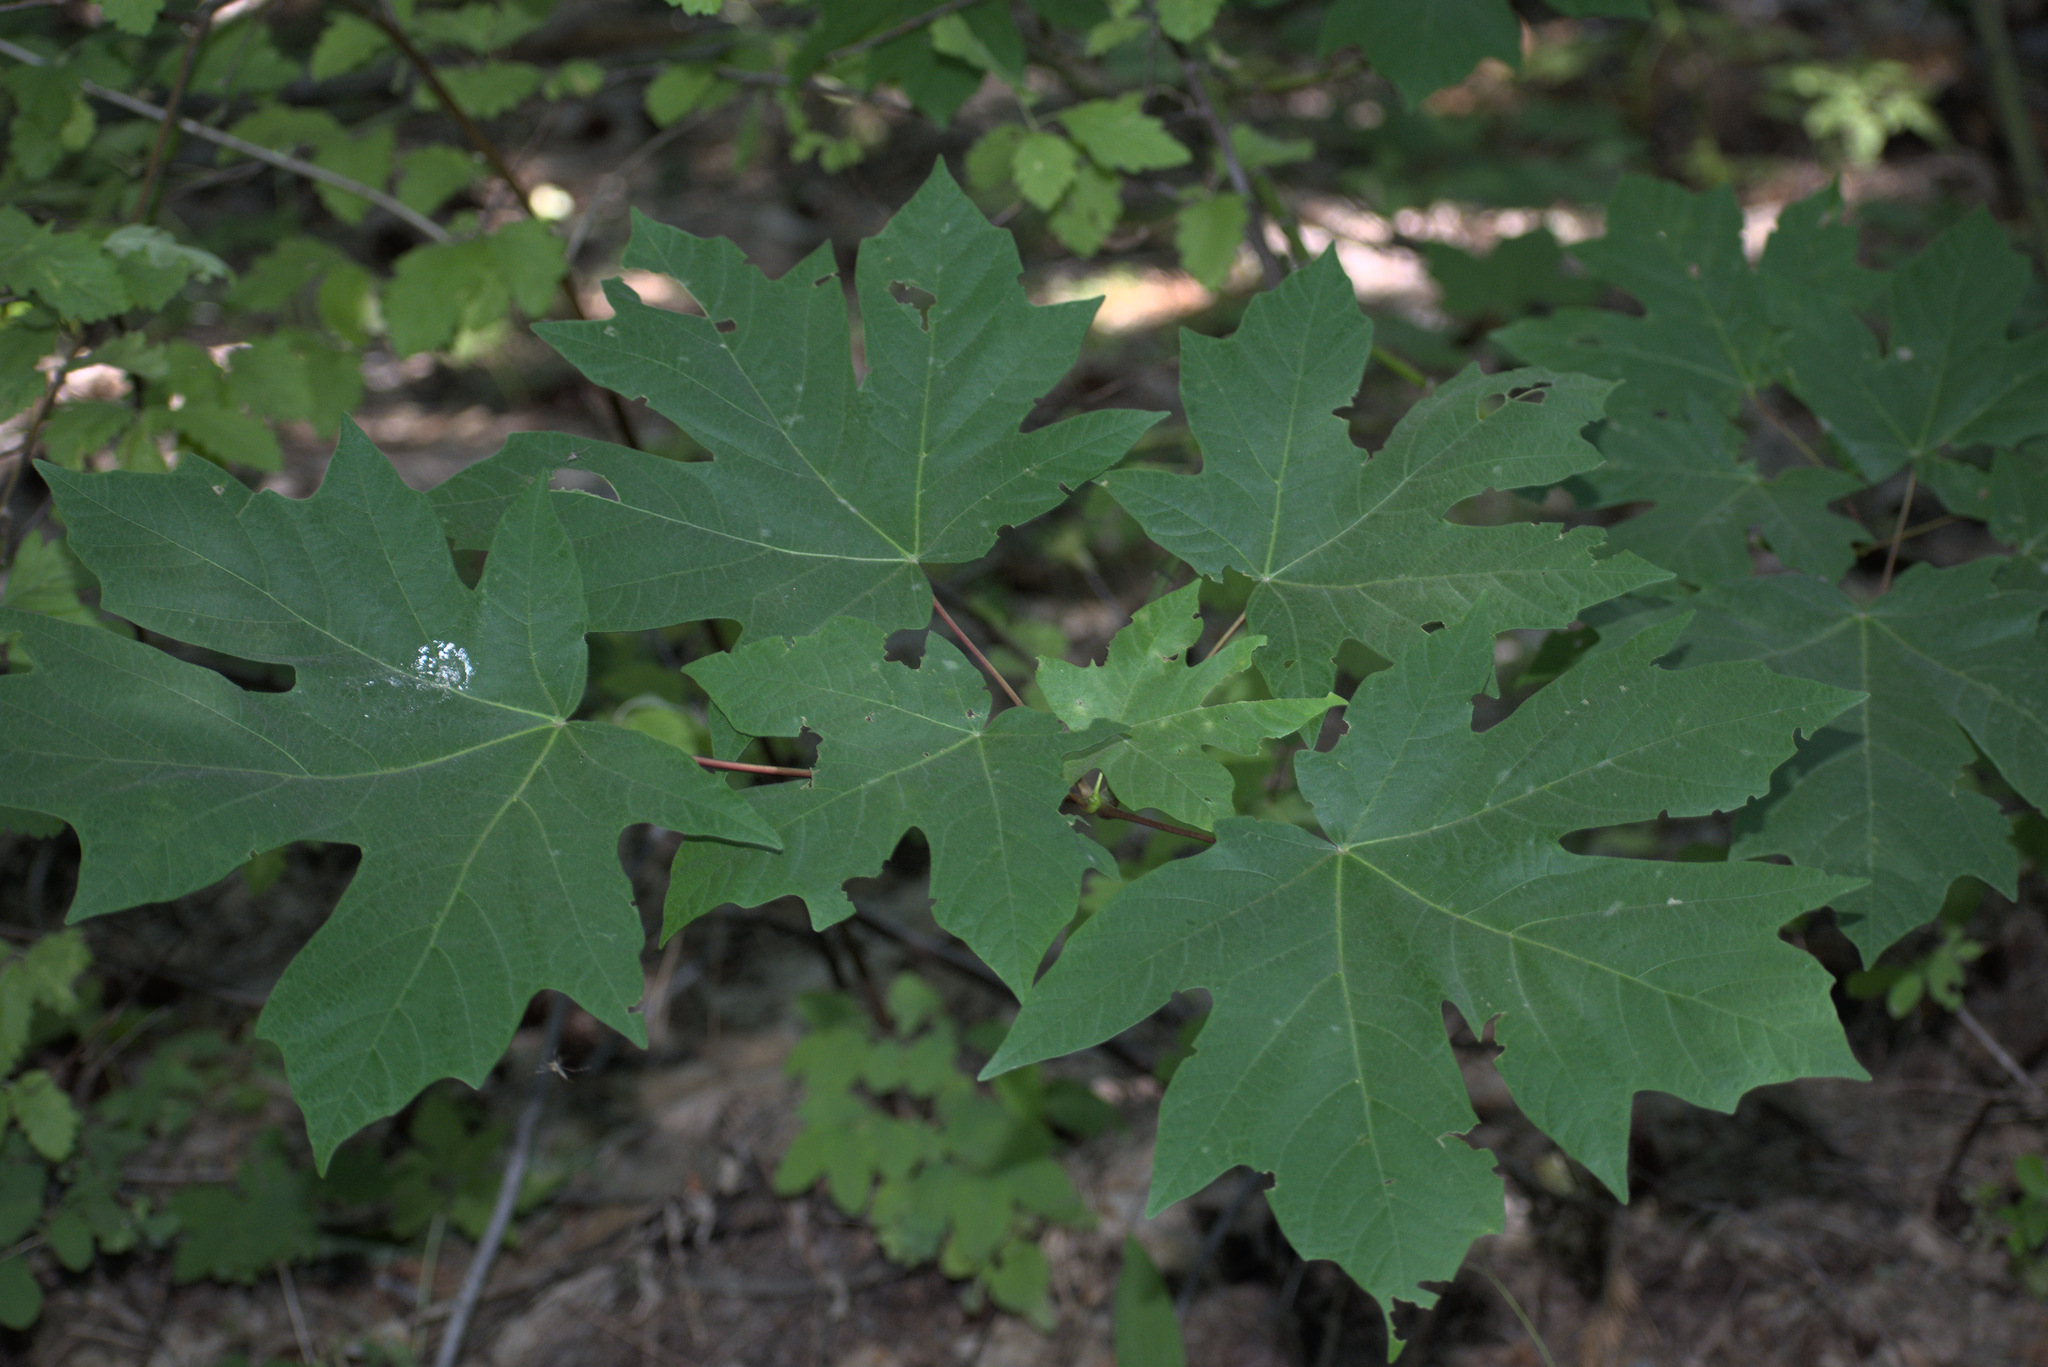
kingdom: Plantae
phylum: Tracheophyta
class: Magnoliopsida
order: Sapindales
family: Sapindaceae
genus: Acer
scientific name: Acer macrophyllum
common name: Oregon maple
